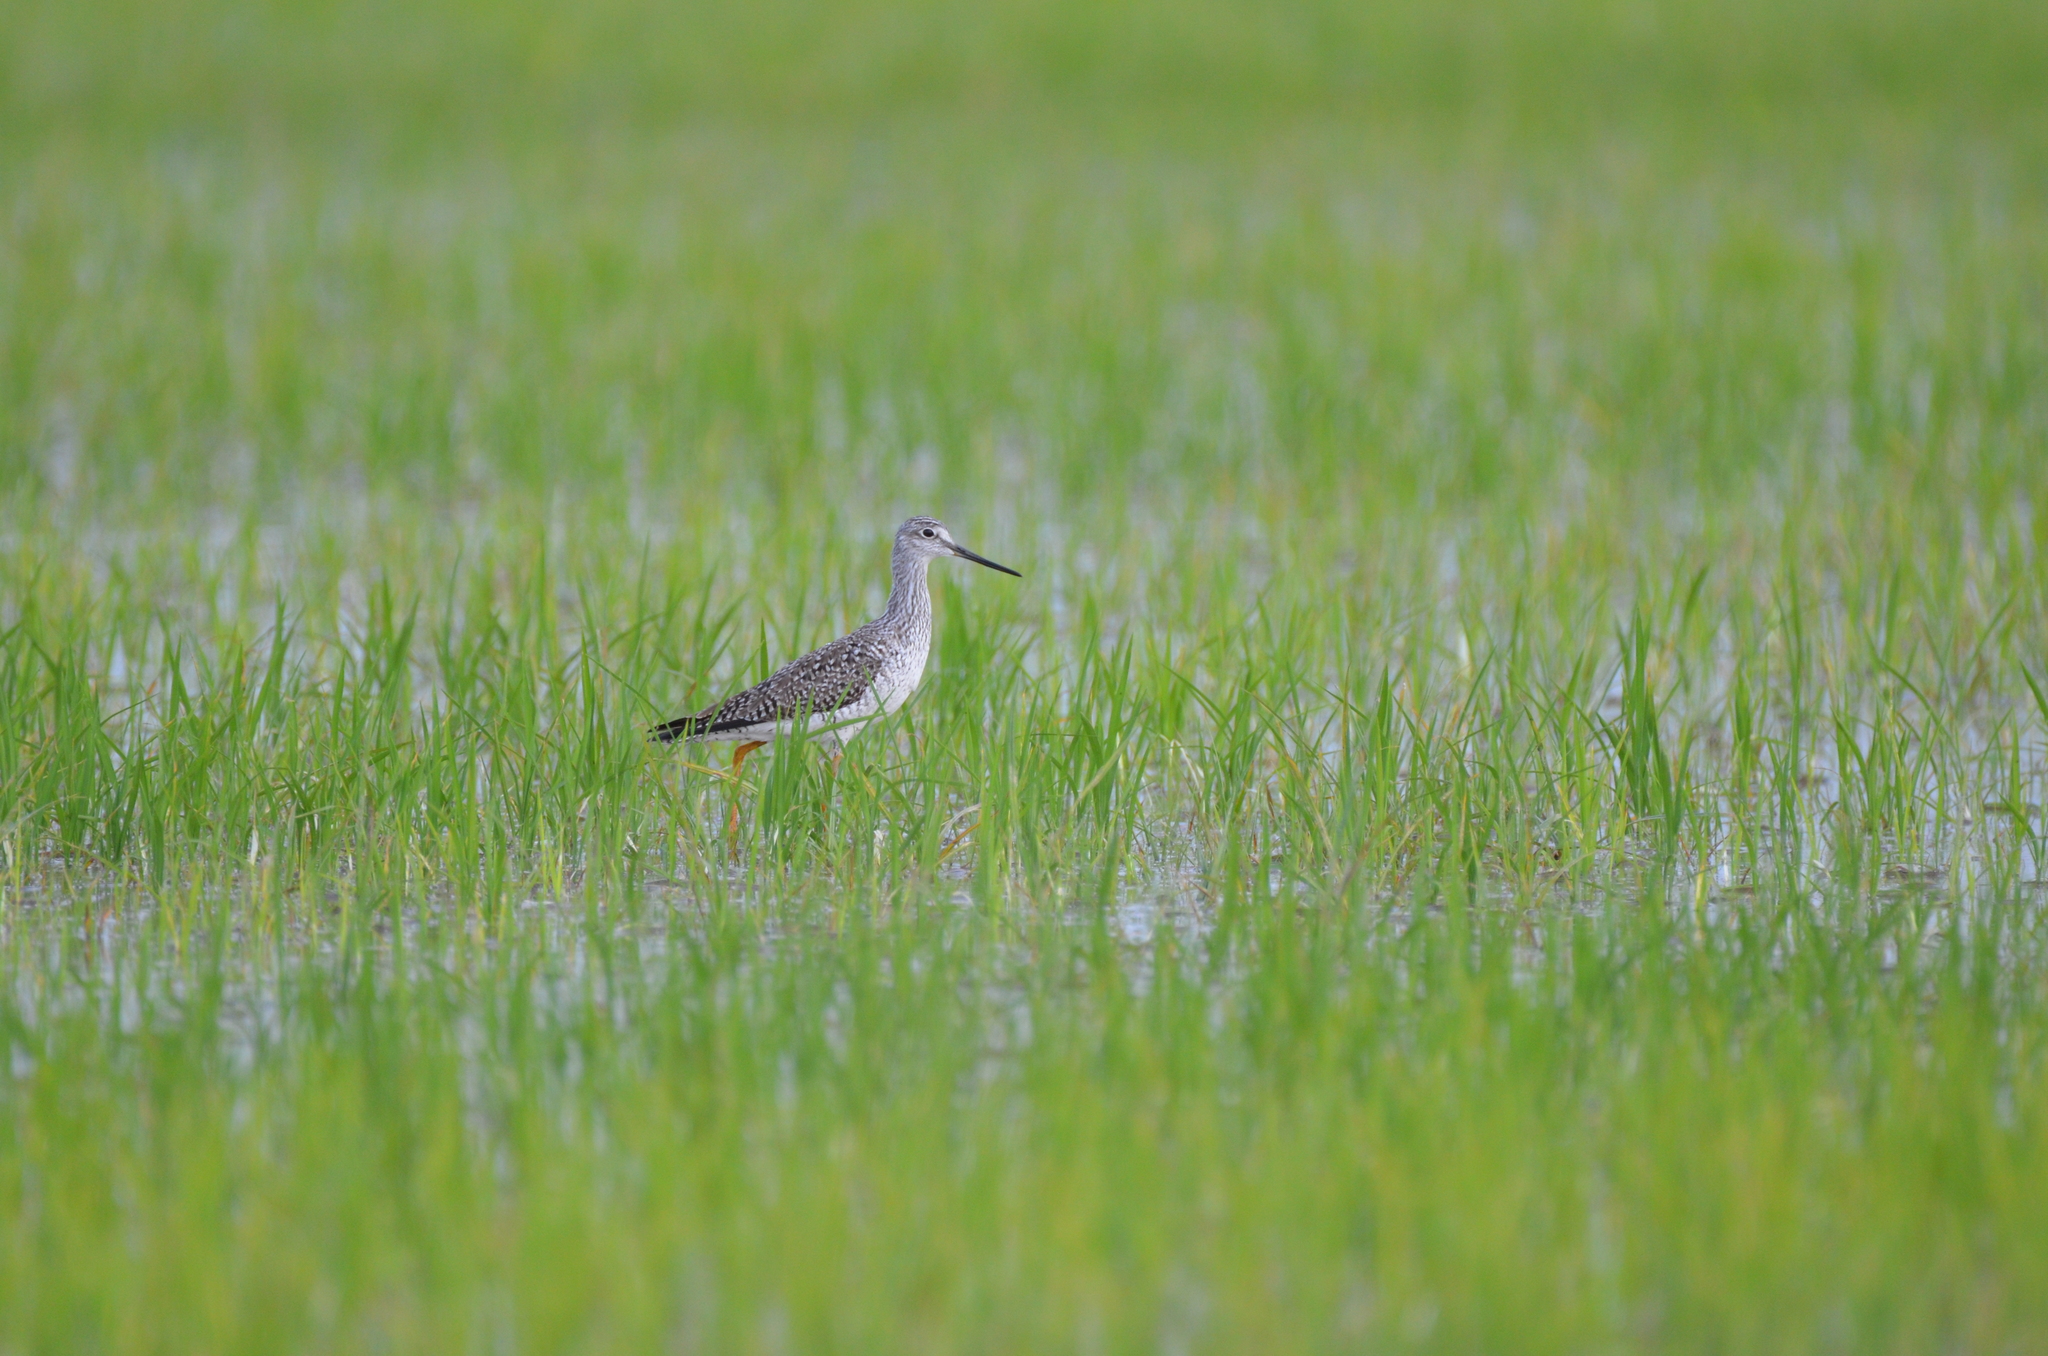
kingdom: Animalia
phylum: Chordata
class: Aves
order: Charadriiformes
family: Scolopacidae
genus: Tringa
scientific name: Tringa melanoleuca
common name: Greater yellowlegs
